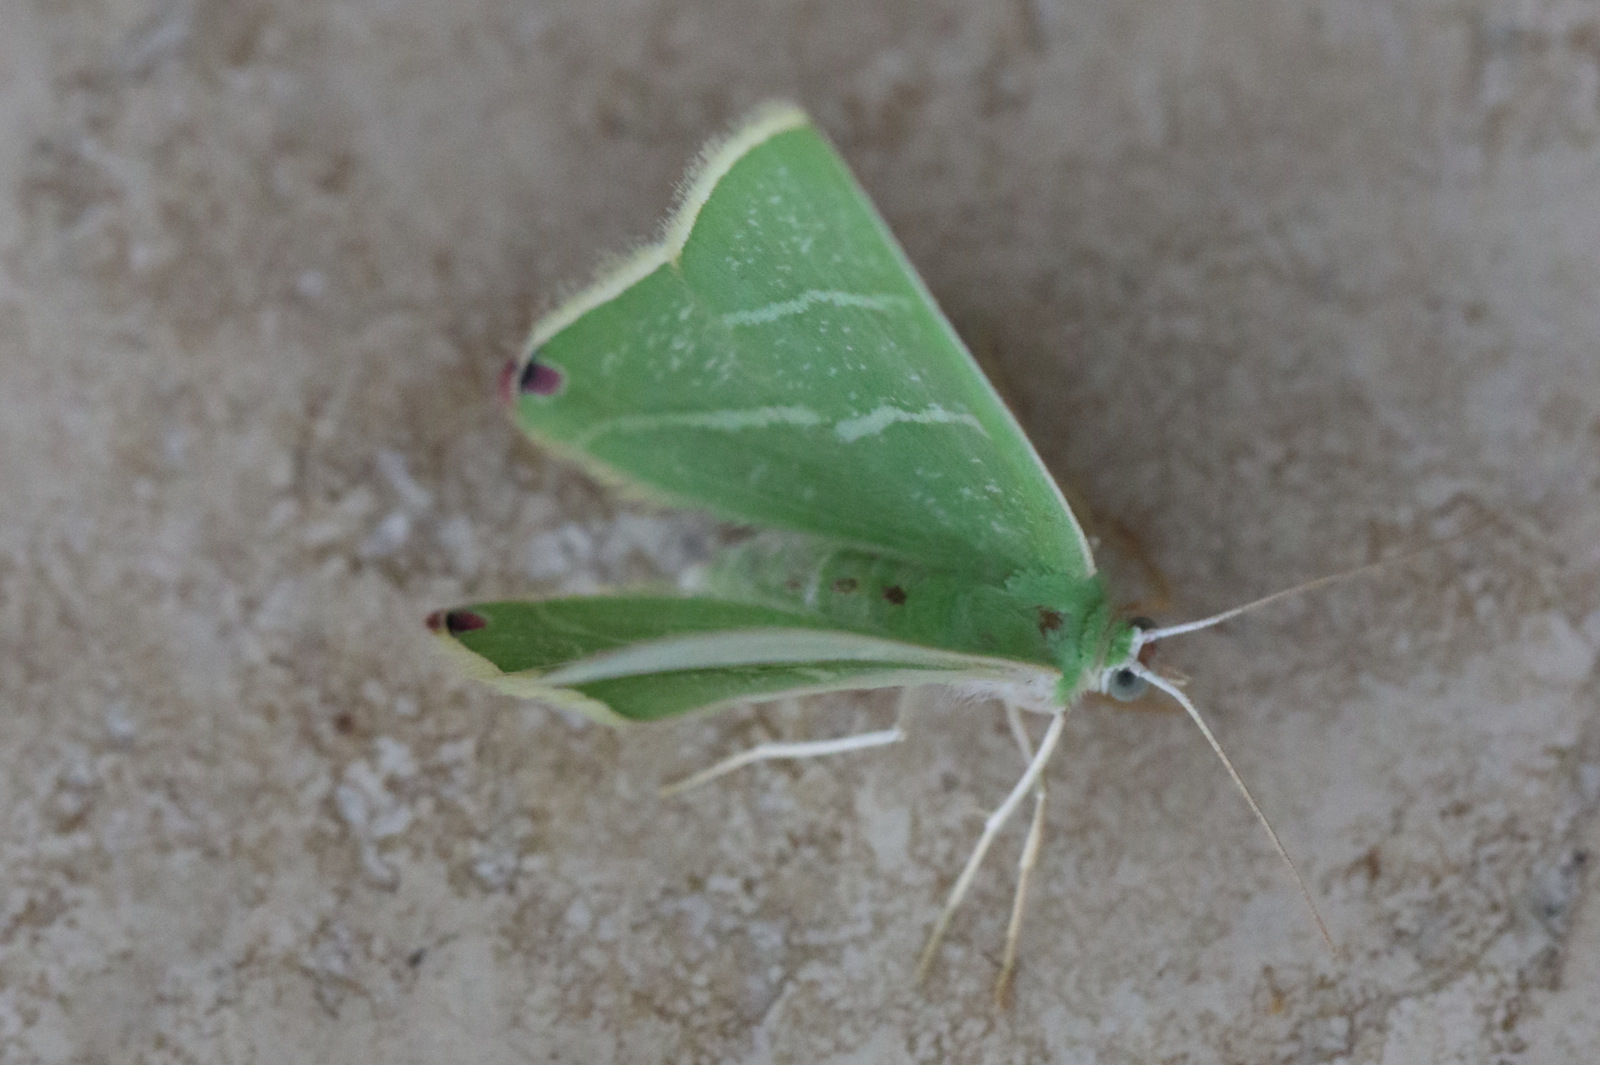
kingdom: Animalia
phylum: Arthropoda
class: Insecta
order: Lepidoptera
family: Geometridae
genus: Urolitha
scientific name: Urolitha bipunctifera
